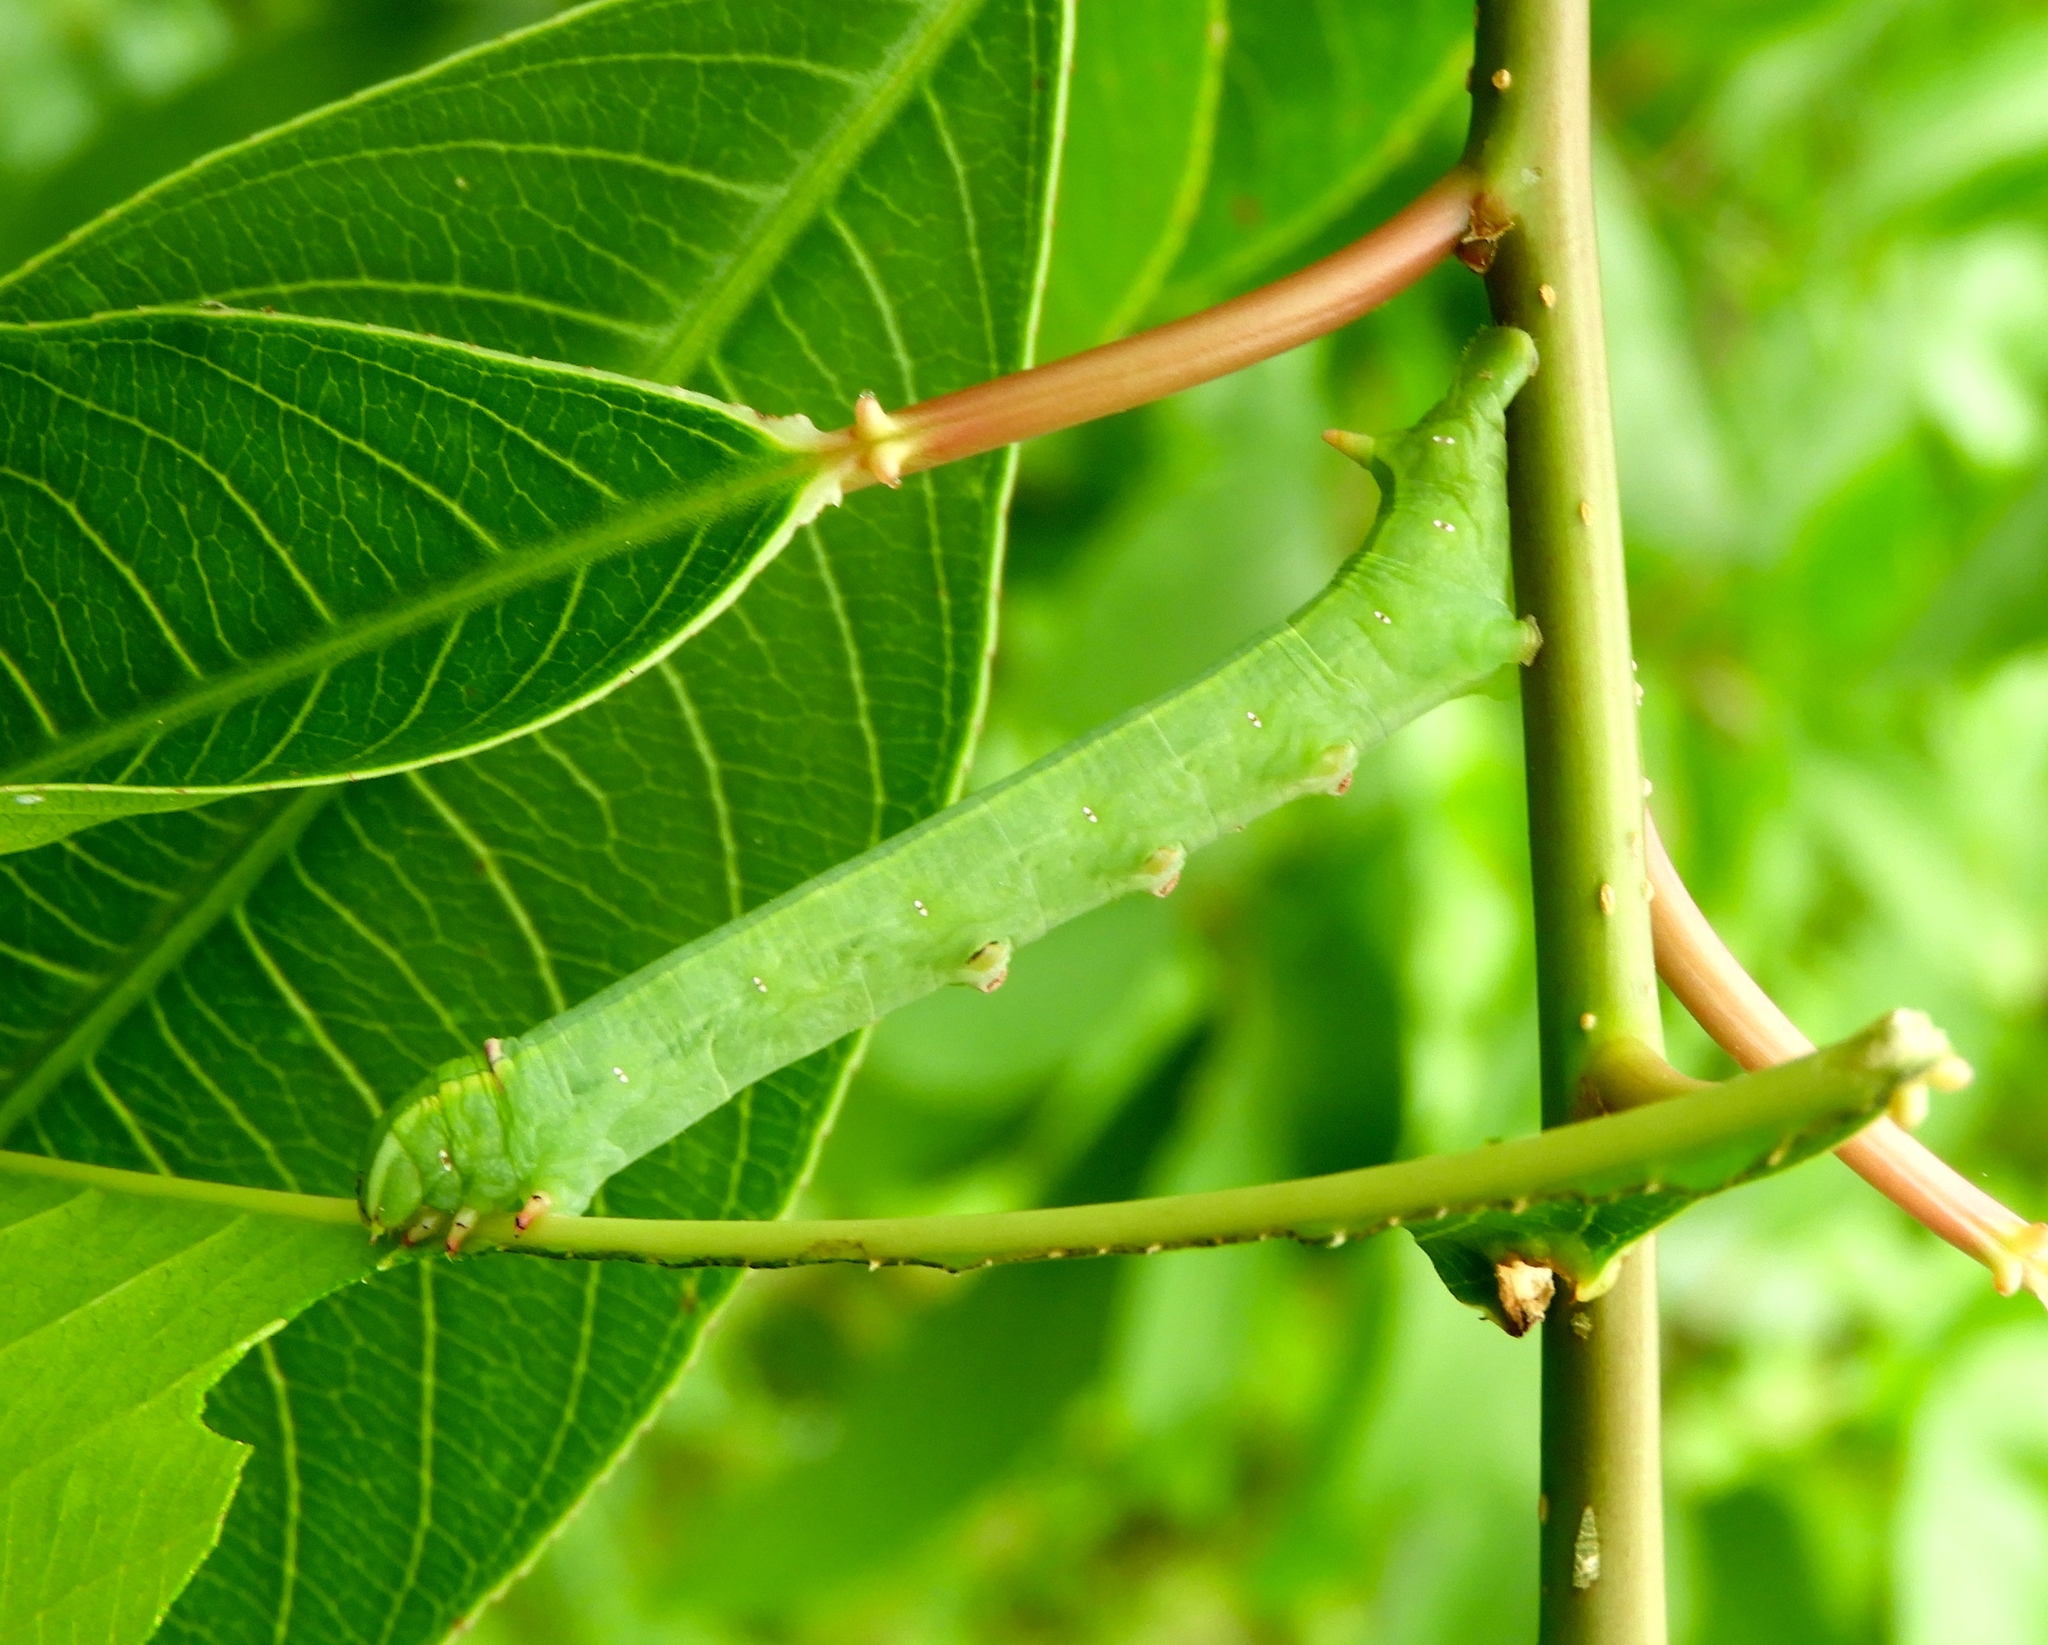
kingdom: Animalia
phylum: Arthropoda
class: Insecta
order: Lepidoptera
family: Sphingidae
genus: Erinnyis
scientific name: Erinnyis
